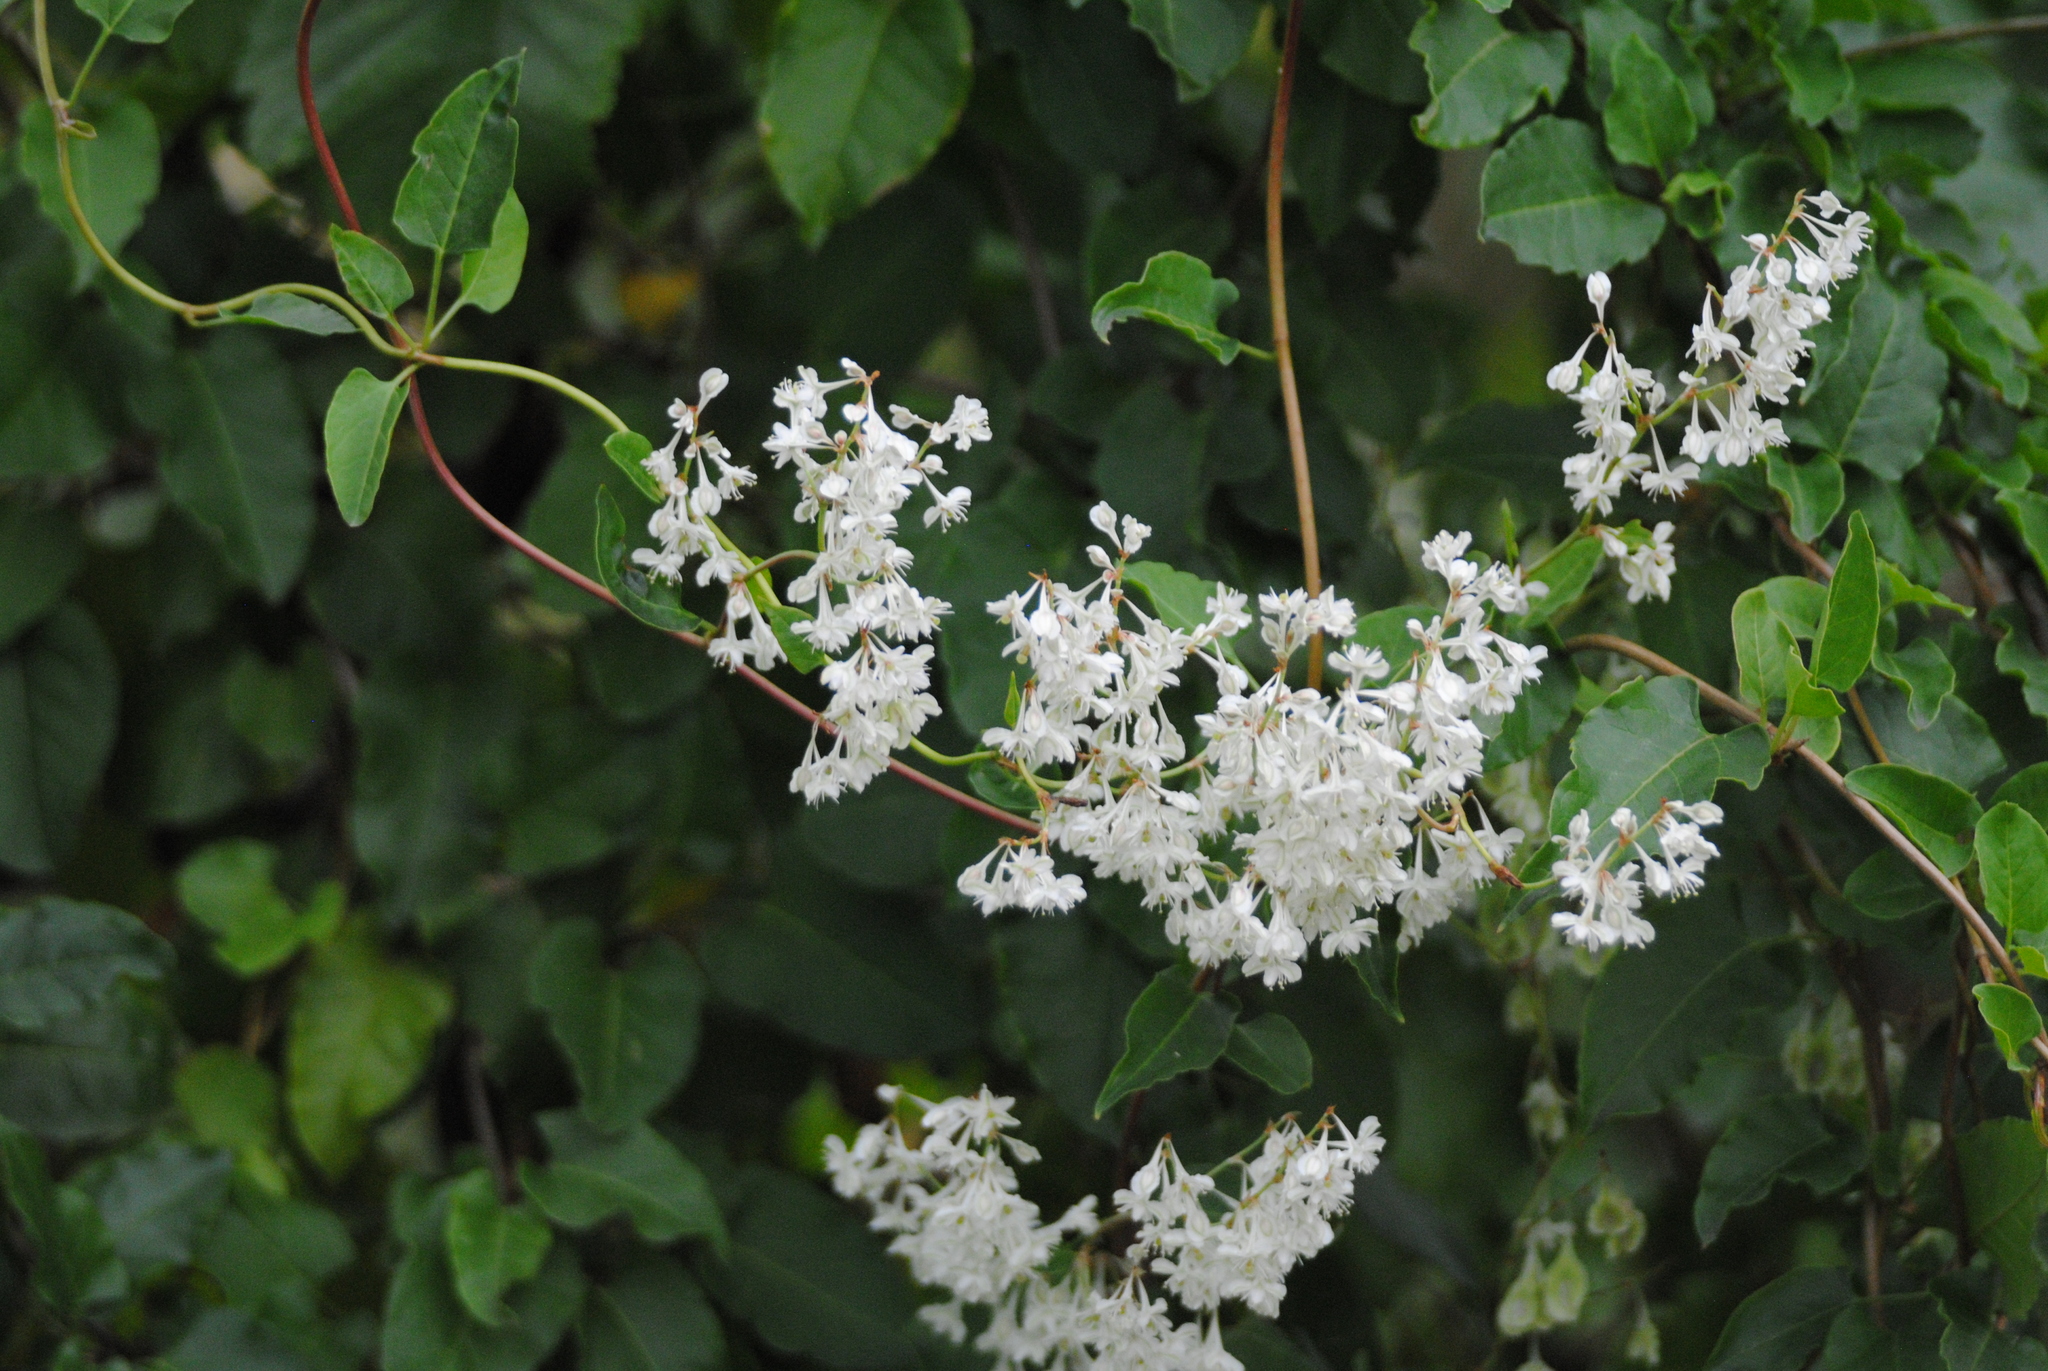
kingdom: Plantae
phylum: Tracheophyta
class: Magnoliopsida
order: Caryophyllales
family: Polygonaceae
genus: Fallopia
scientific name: Fallopia baldschuanica
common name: Russian-vine
